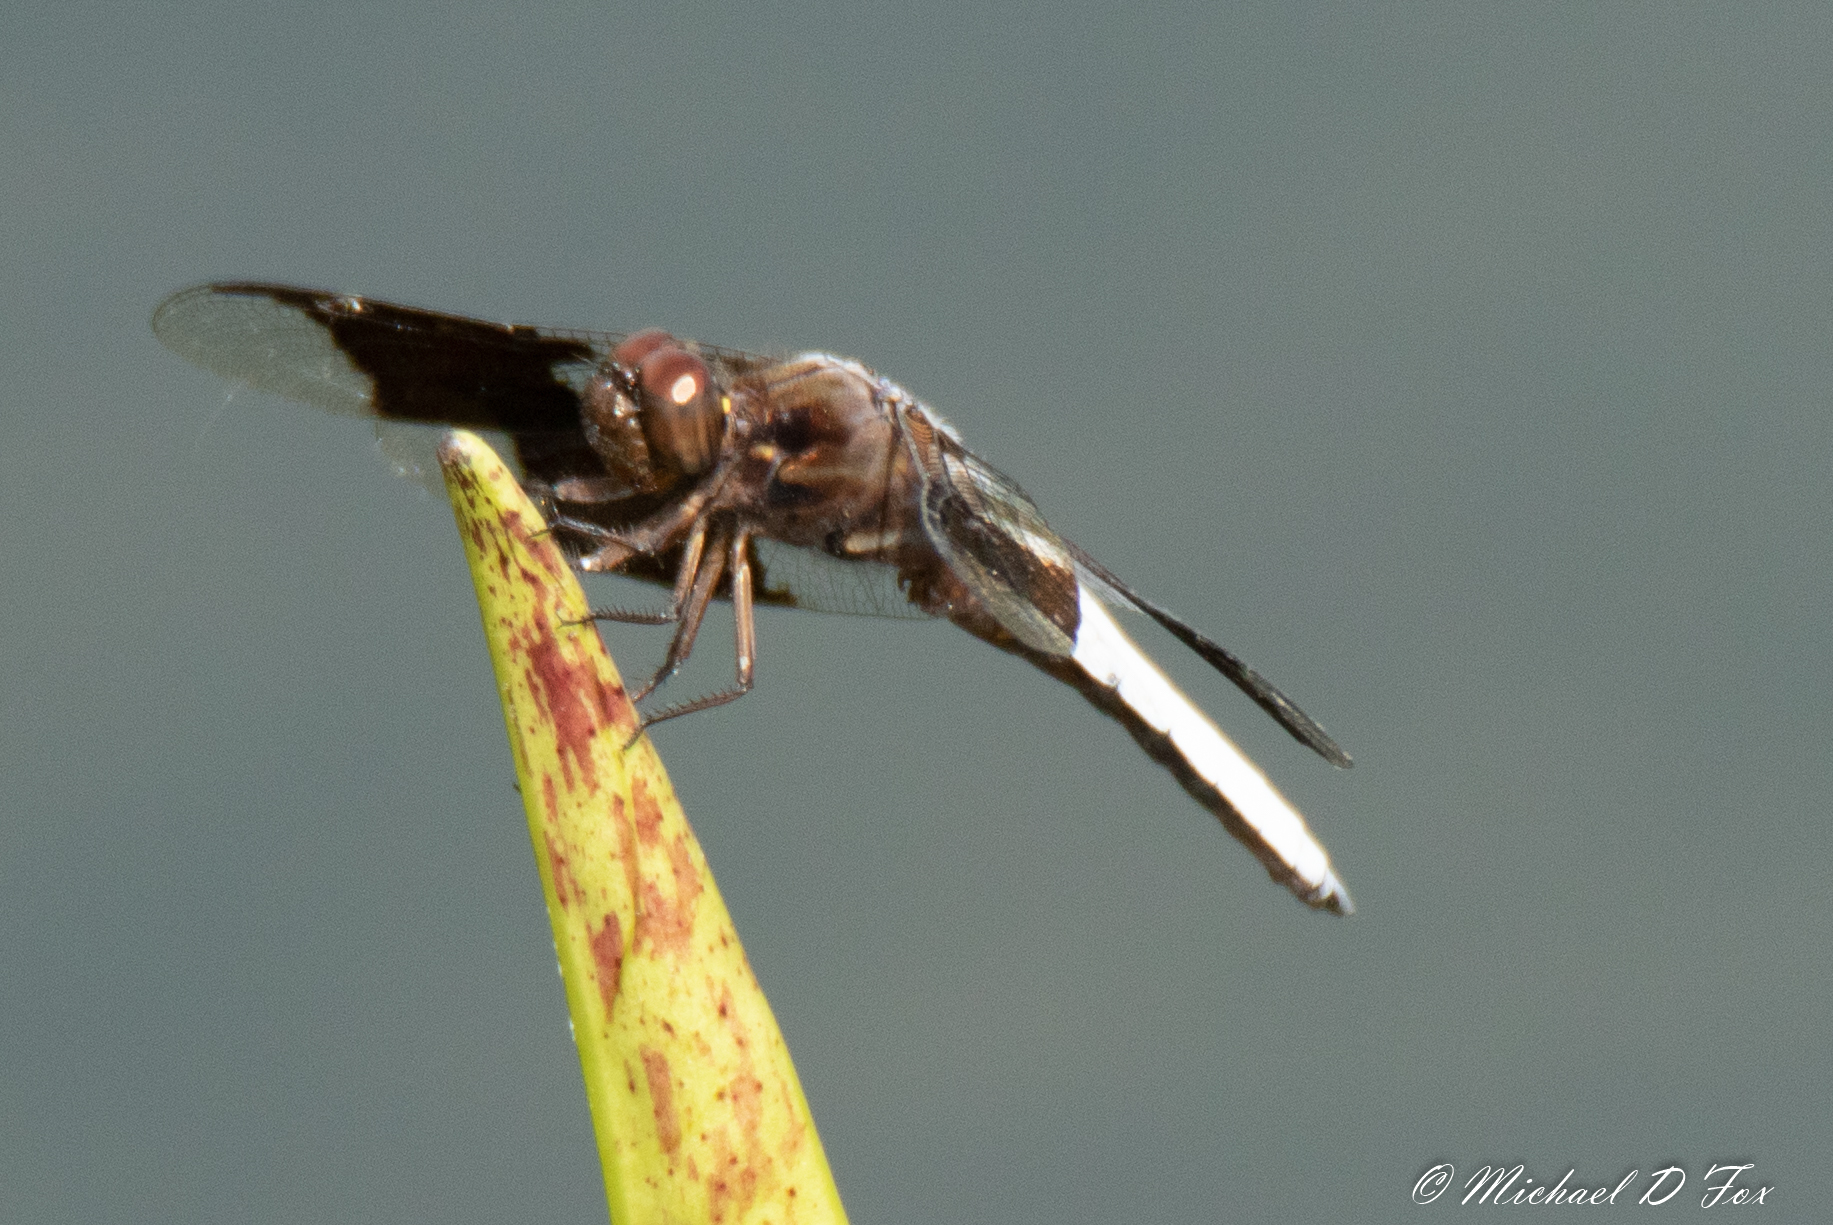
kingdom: Animalia
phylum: Arthropoda
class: Insecta
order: Odonata
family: Libellulidae
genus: Plathemis
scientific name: Plathemis lydia
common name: Common whitetail
